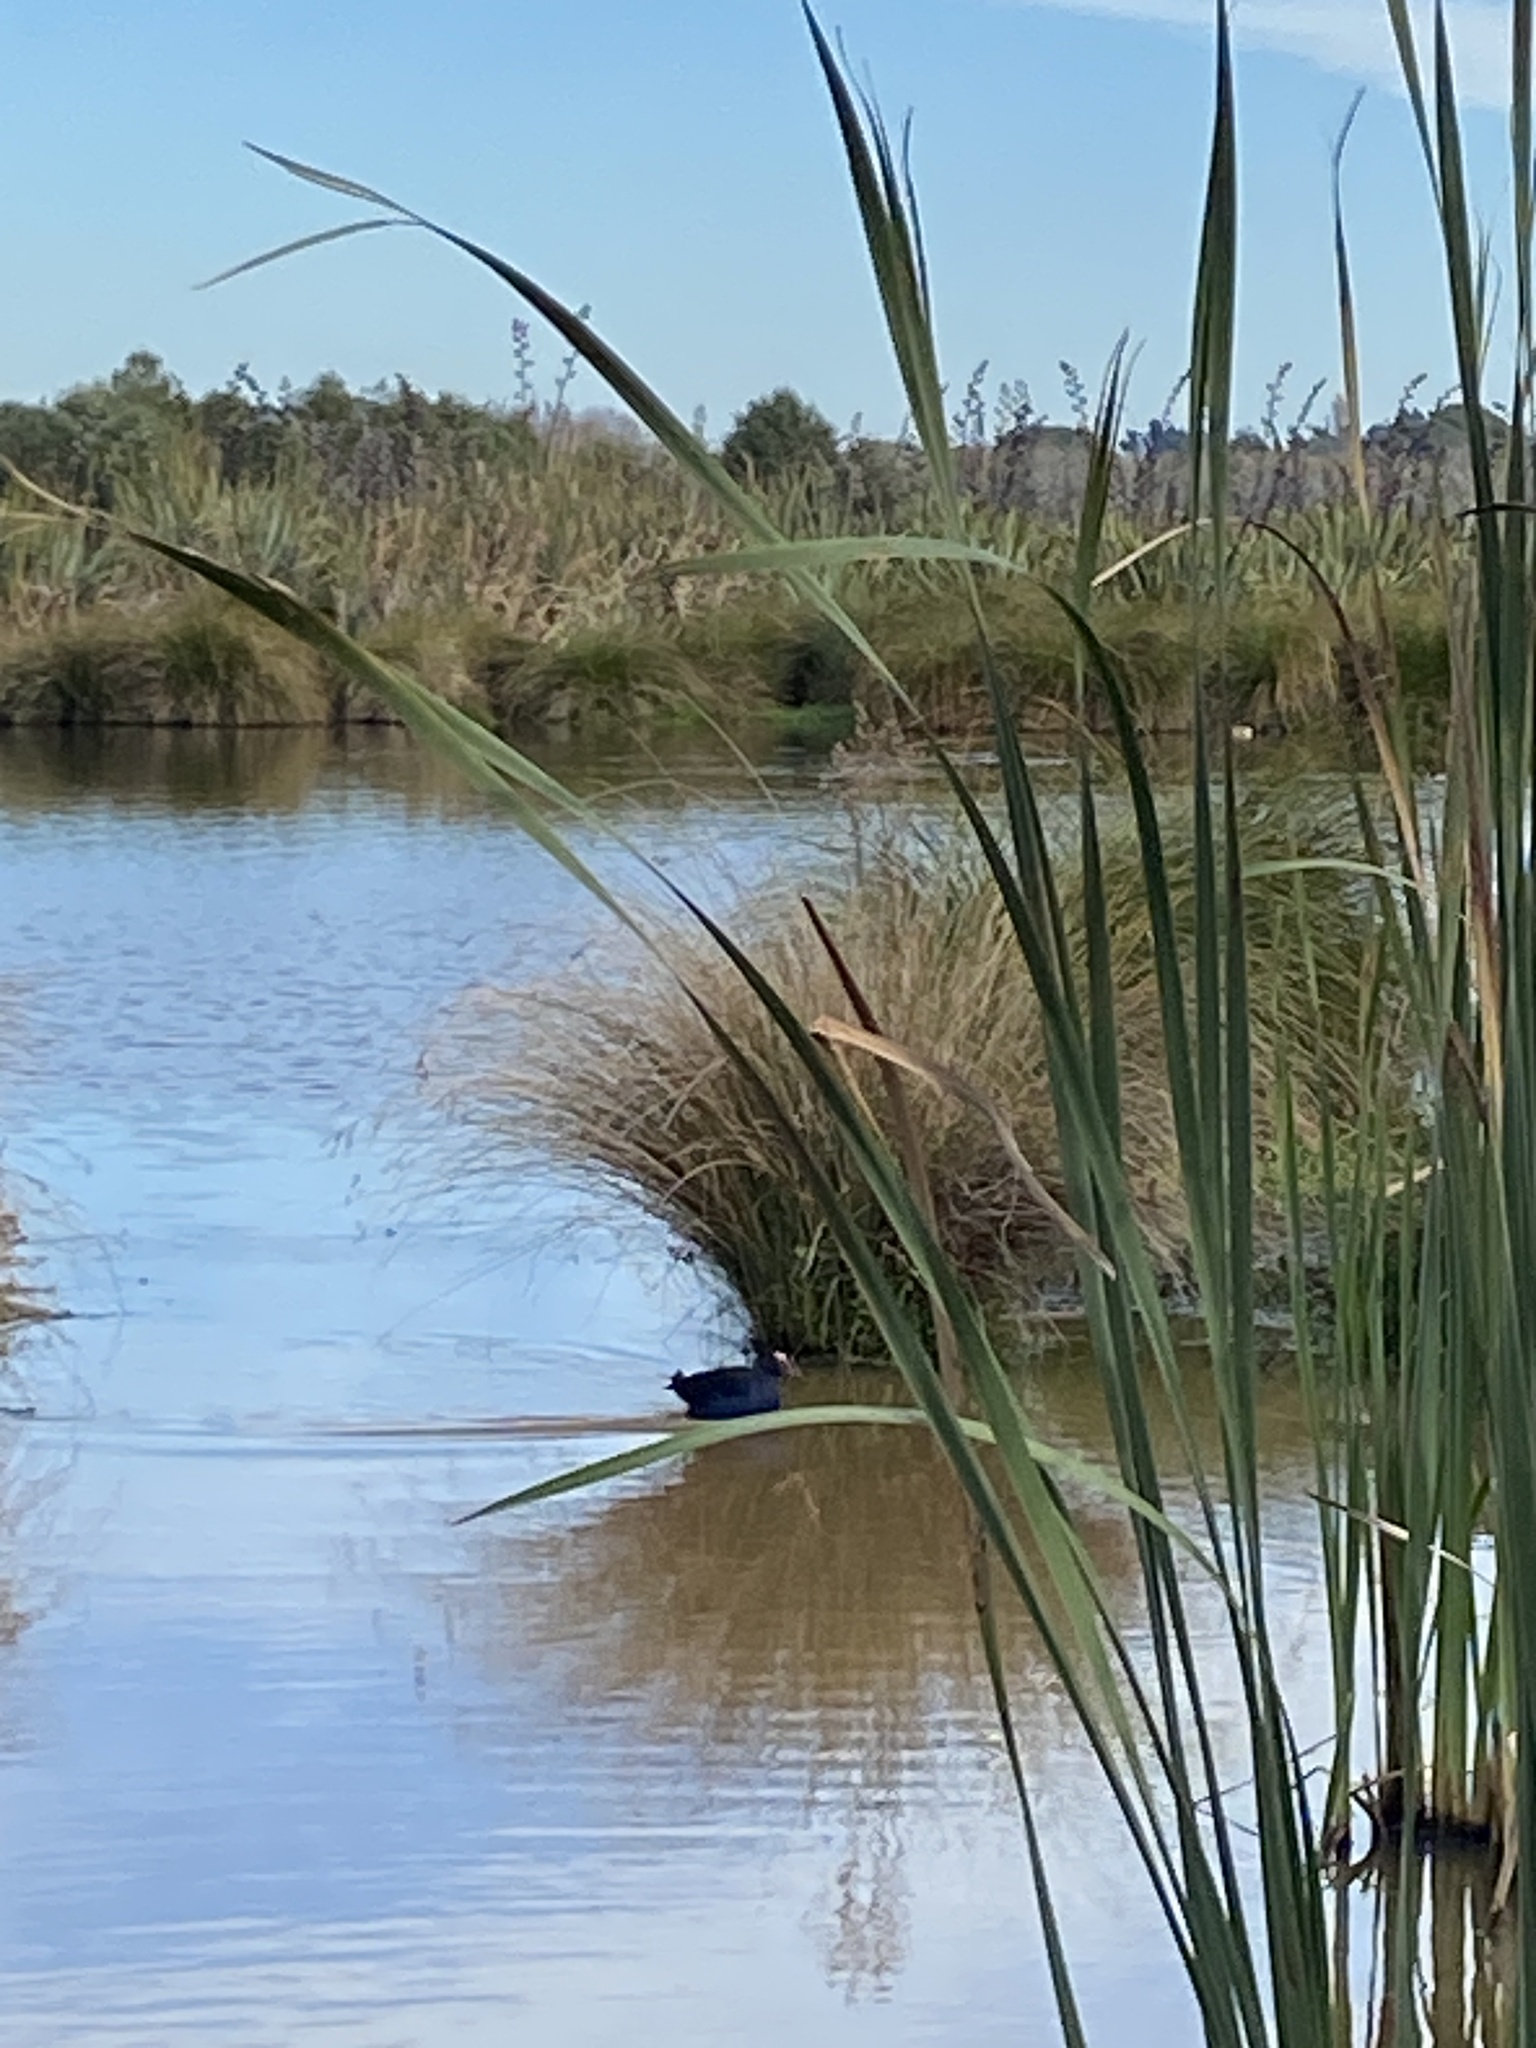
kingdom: Animalia
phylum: Chordata
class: Aves
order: Gruiformes
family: Rallidae
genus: Porphyrio
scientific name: Porphyrio melanotus
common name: Australasian swamphen
